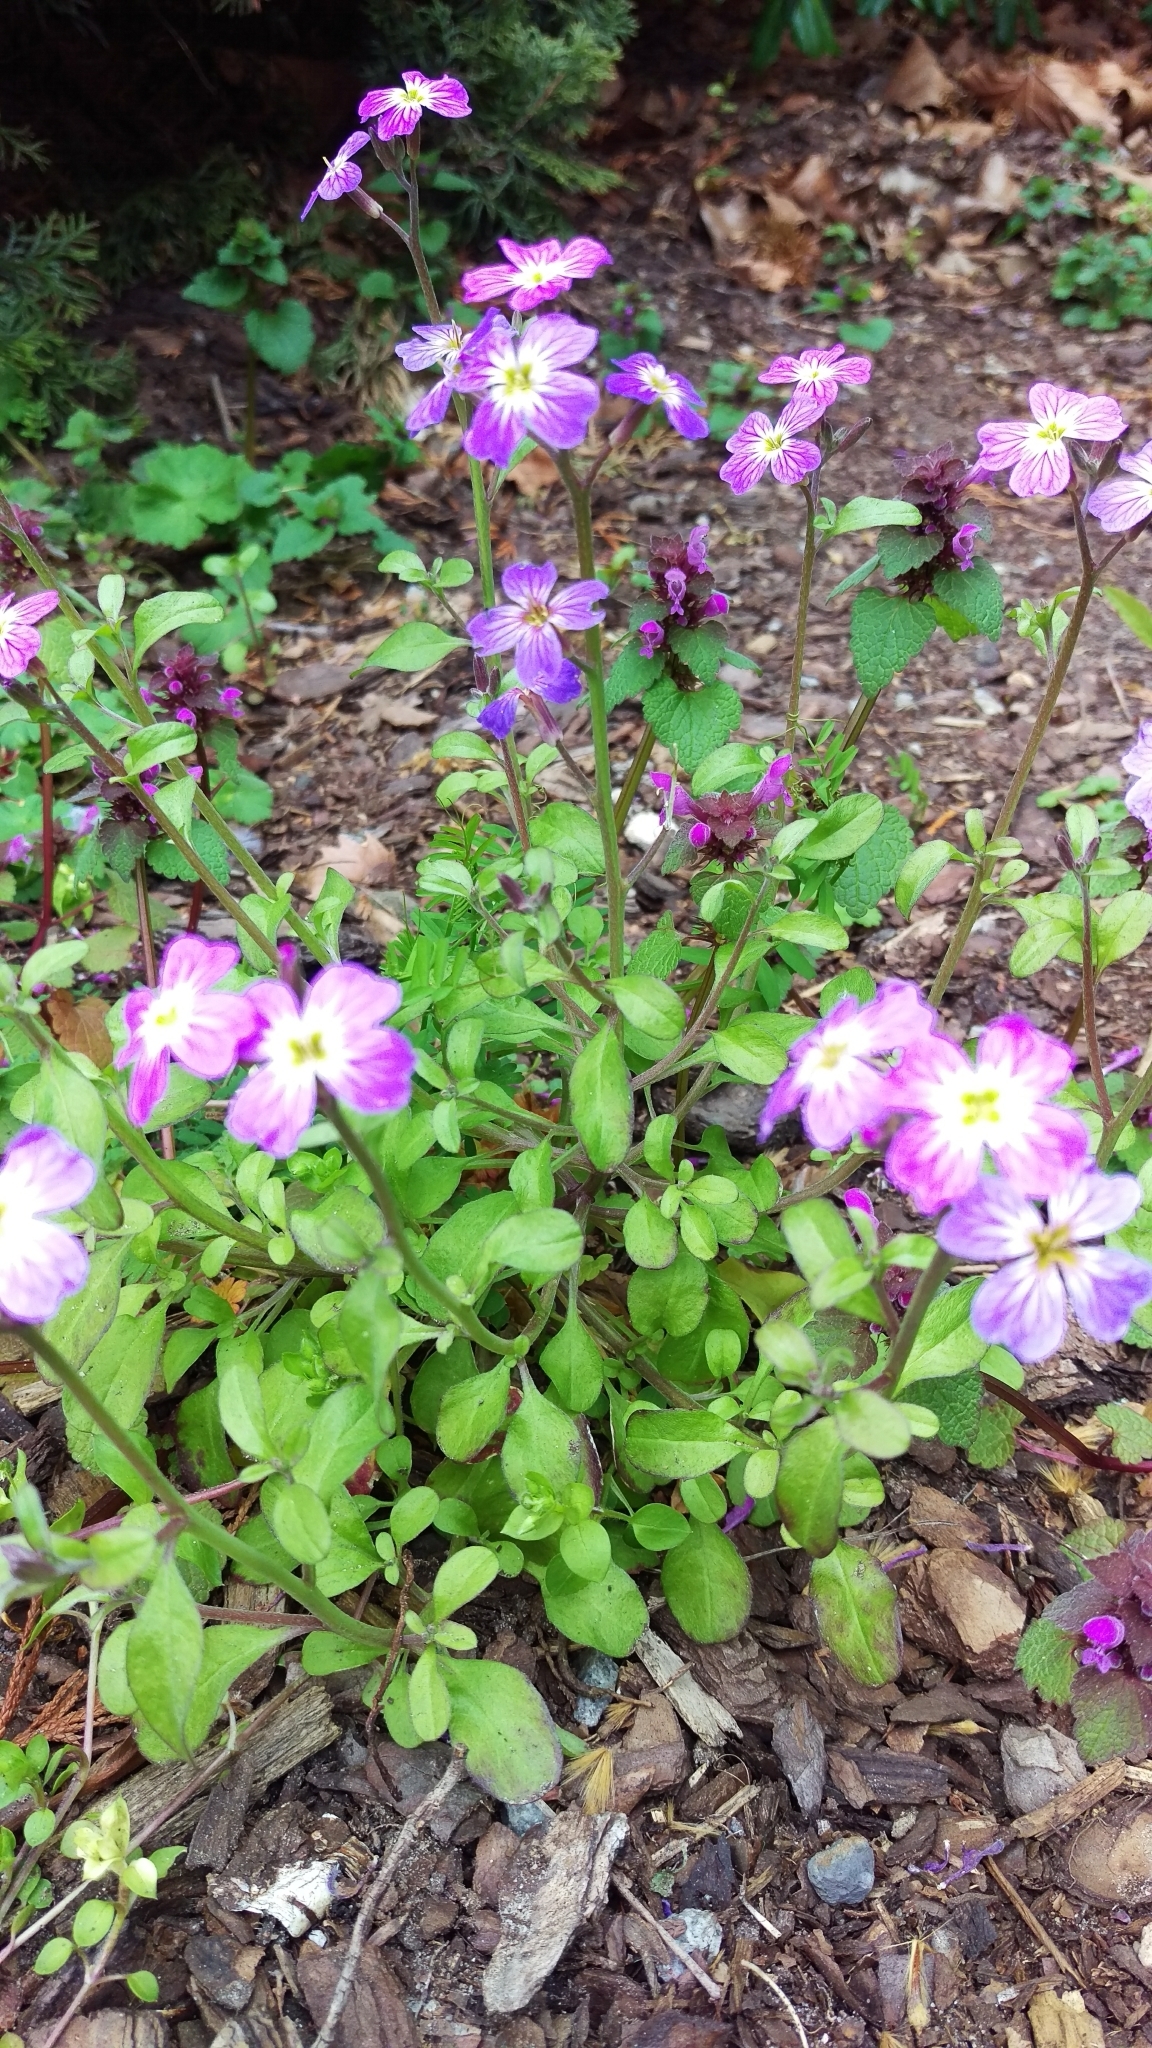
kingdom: Plantae
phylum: Tracheophyta
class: Magnoliopsida
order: Caryophyllales
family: Caryophyllaceae
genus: Stellaria
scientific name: Stellaria media
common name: Common chickweed
